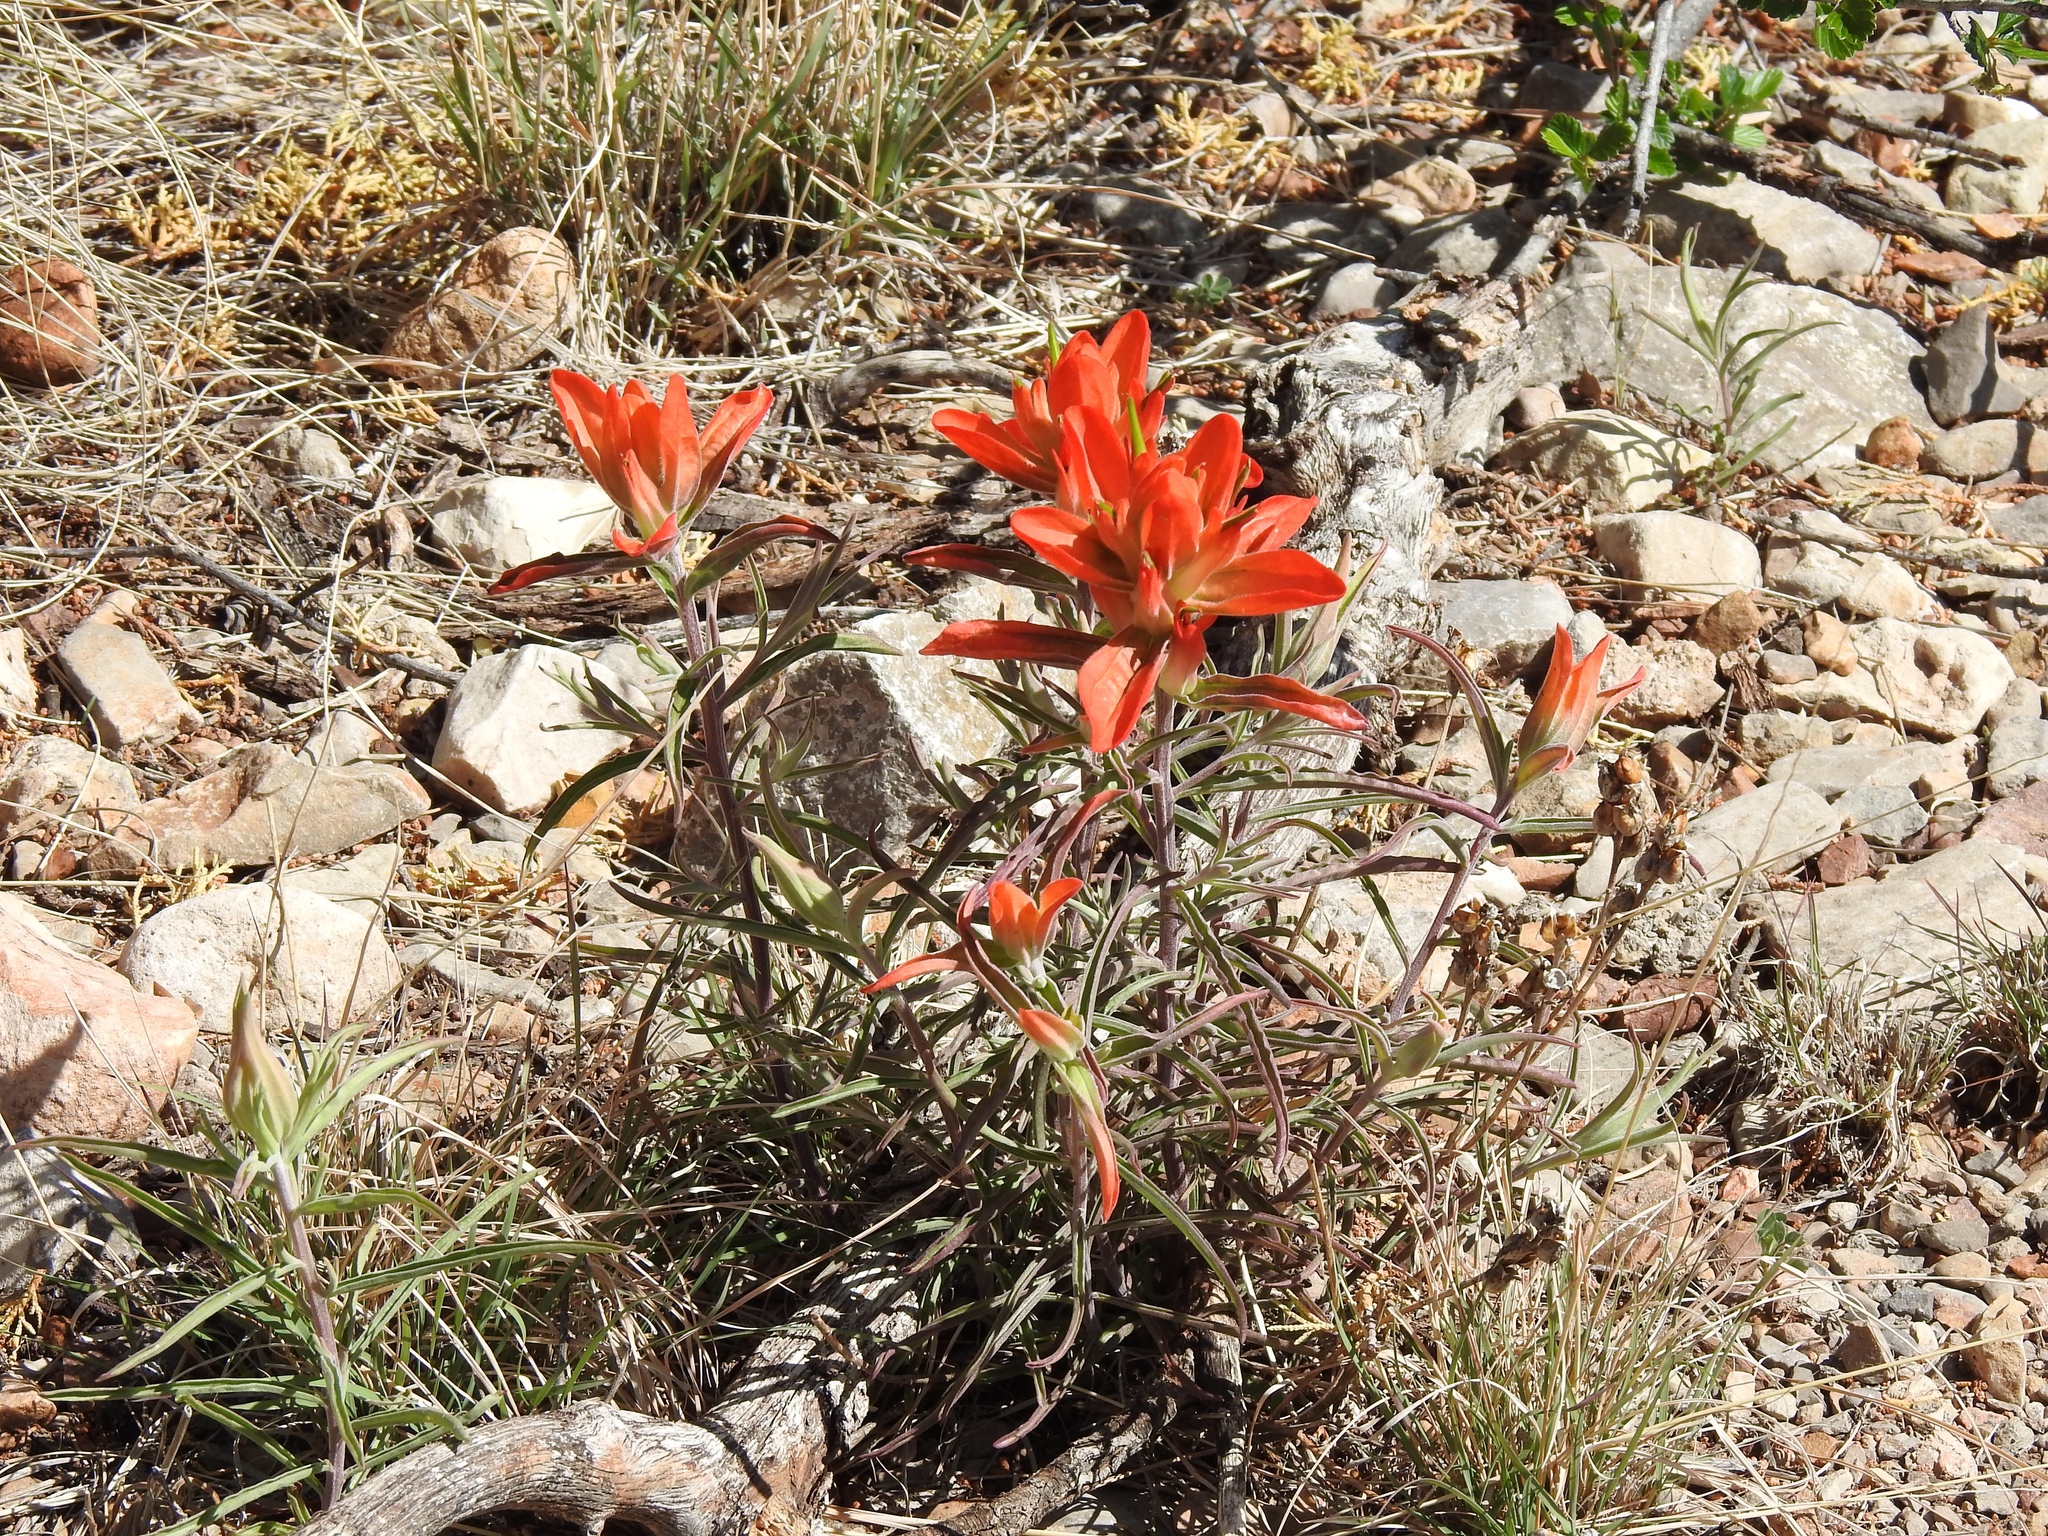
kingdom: Plantae
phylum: Tracheophyta
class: Magnoliopsida
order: Lamiales
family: Orobanchaceae
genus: Castilleja
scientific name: Castilleja integra
